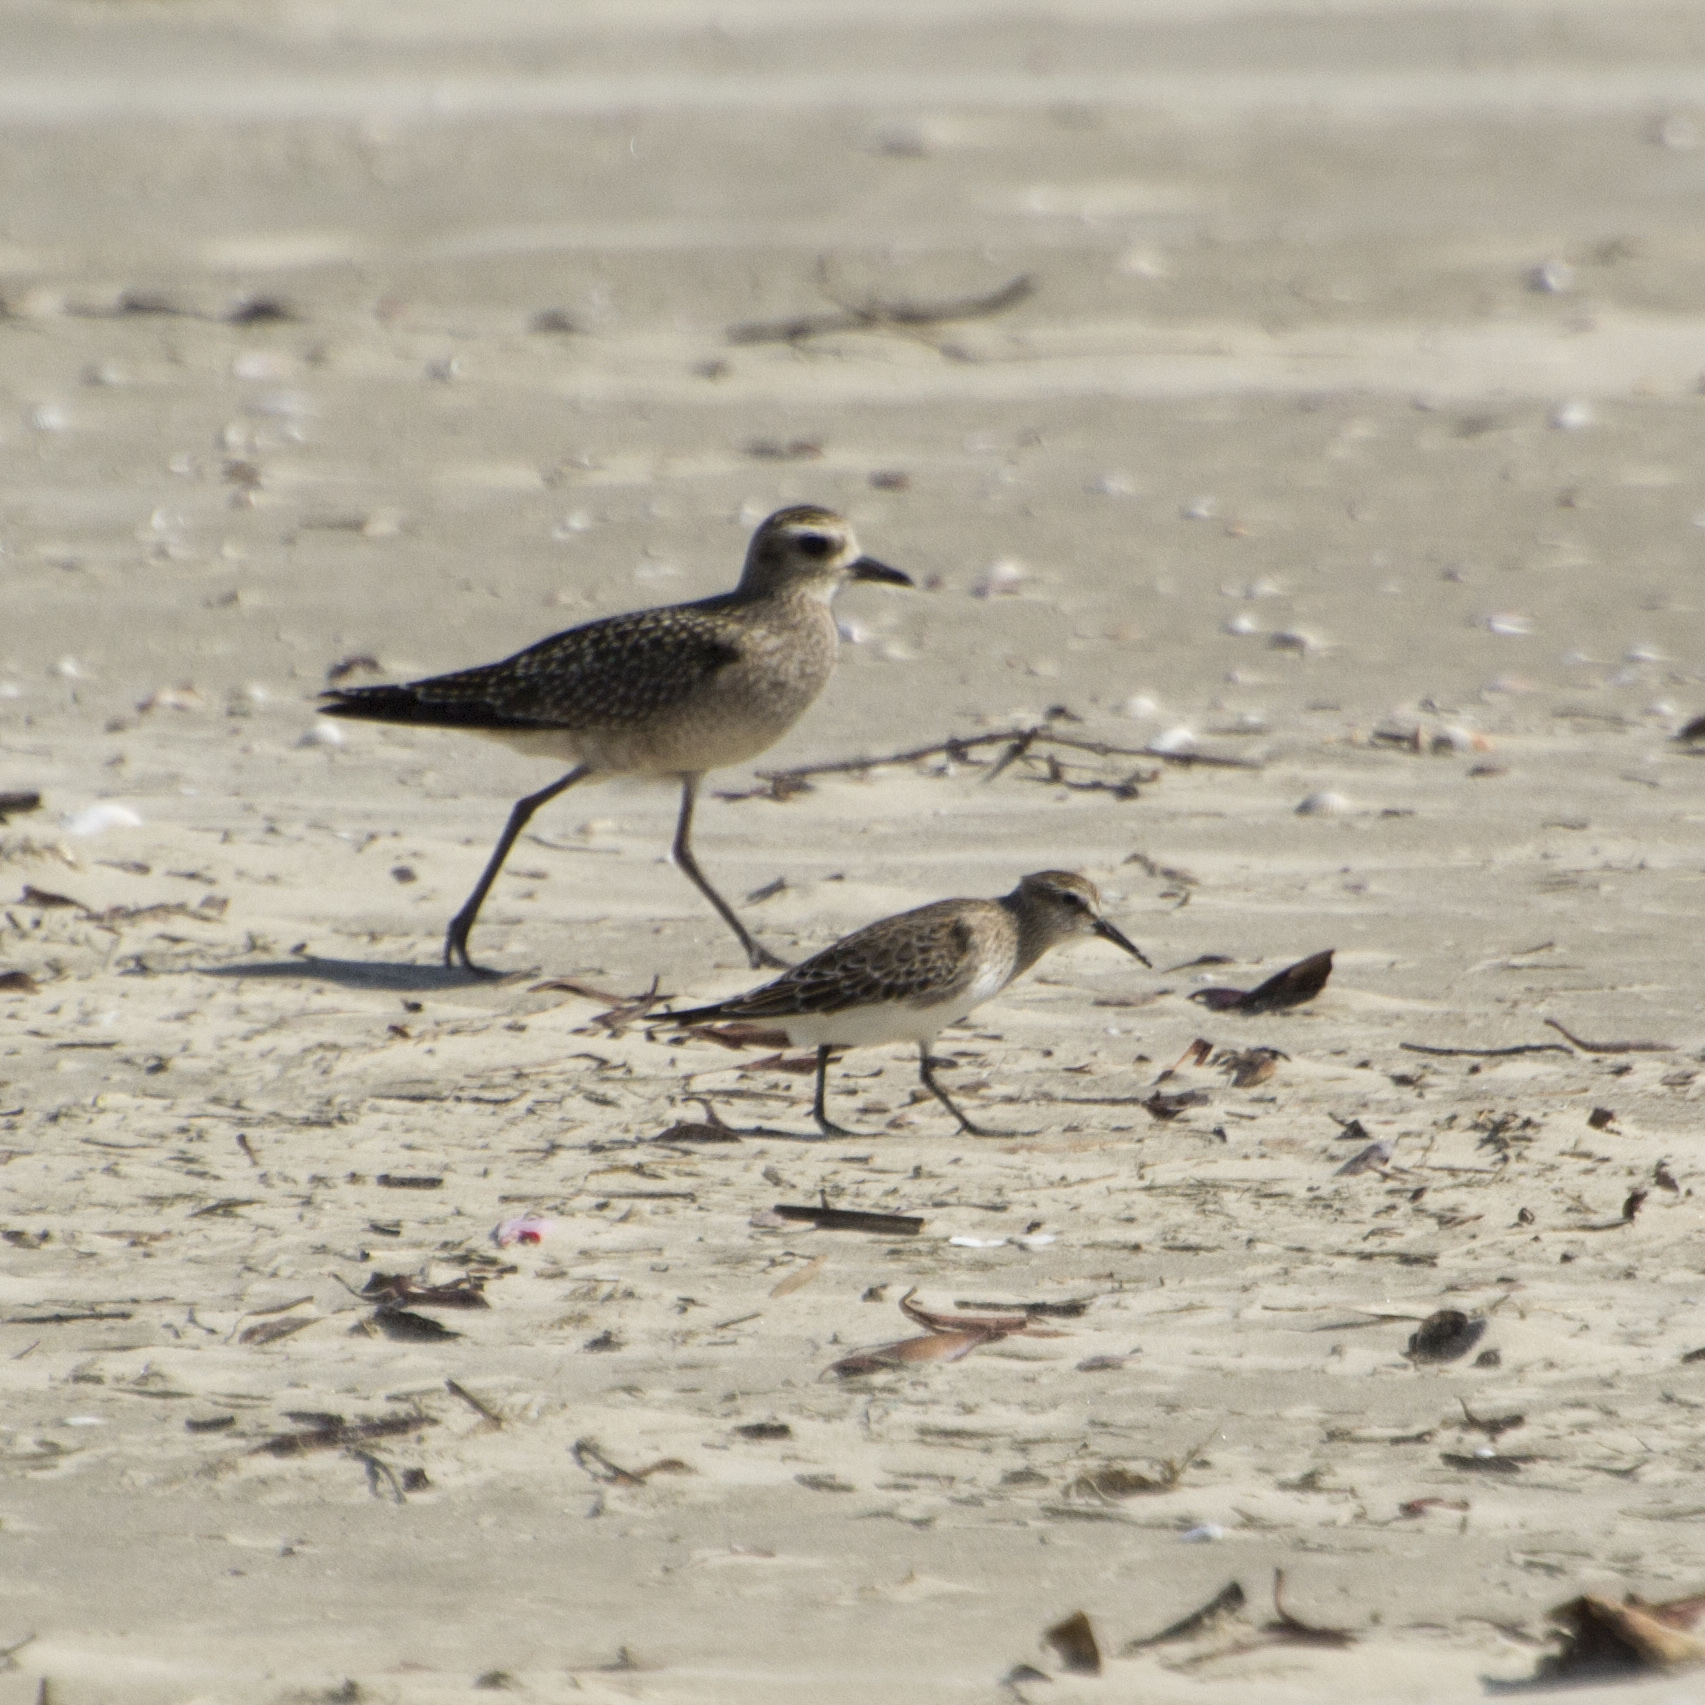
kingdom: Animalia
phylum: Chordata
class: Aves
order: Charadriiformes
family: Scolopacidae
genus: Calidris
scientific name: Calidris bairdii
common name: Baird's sandpiper
